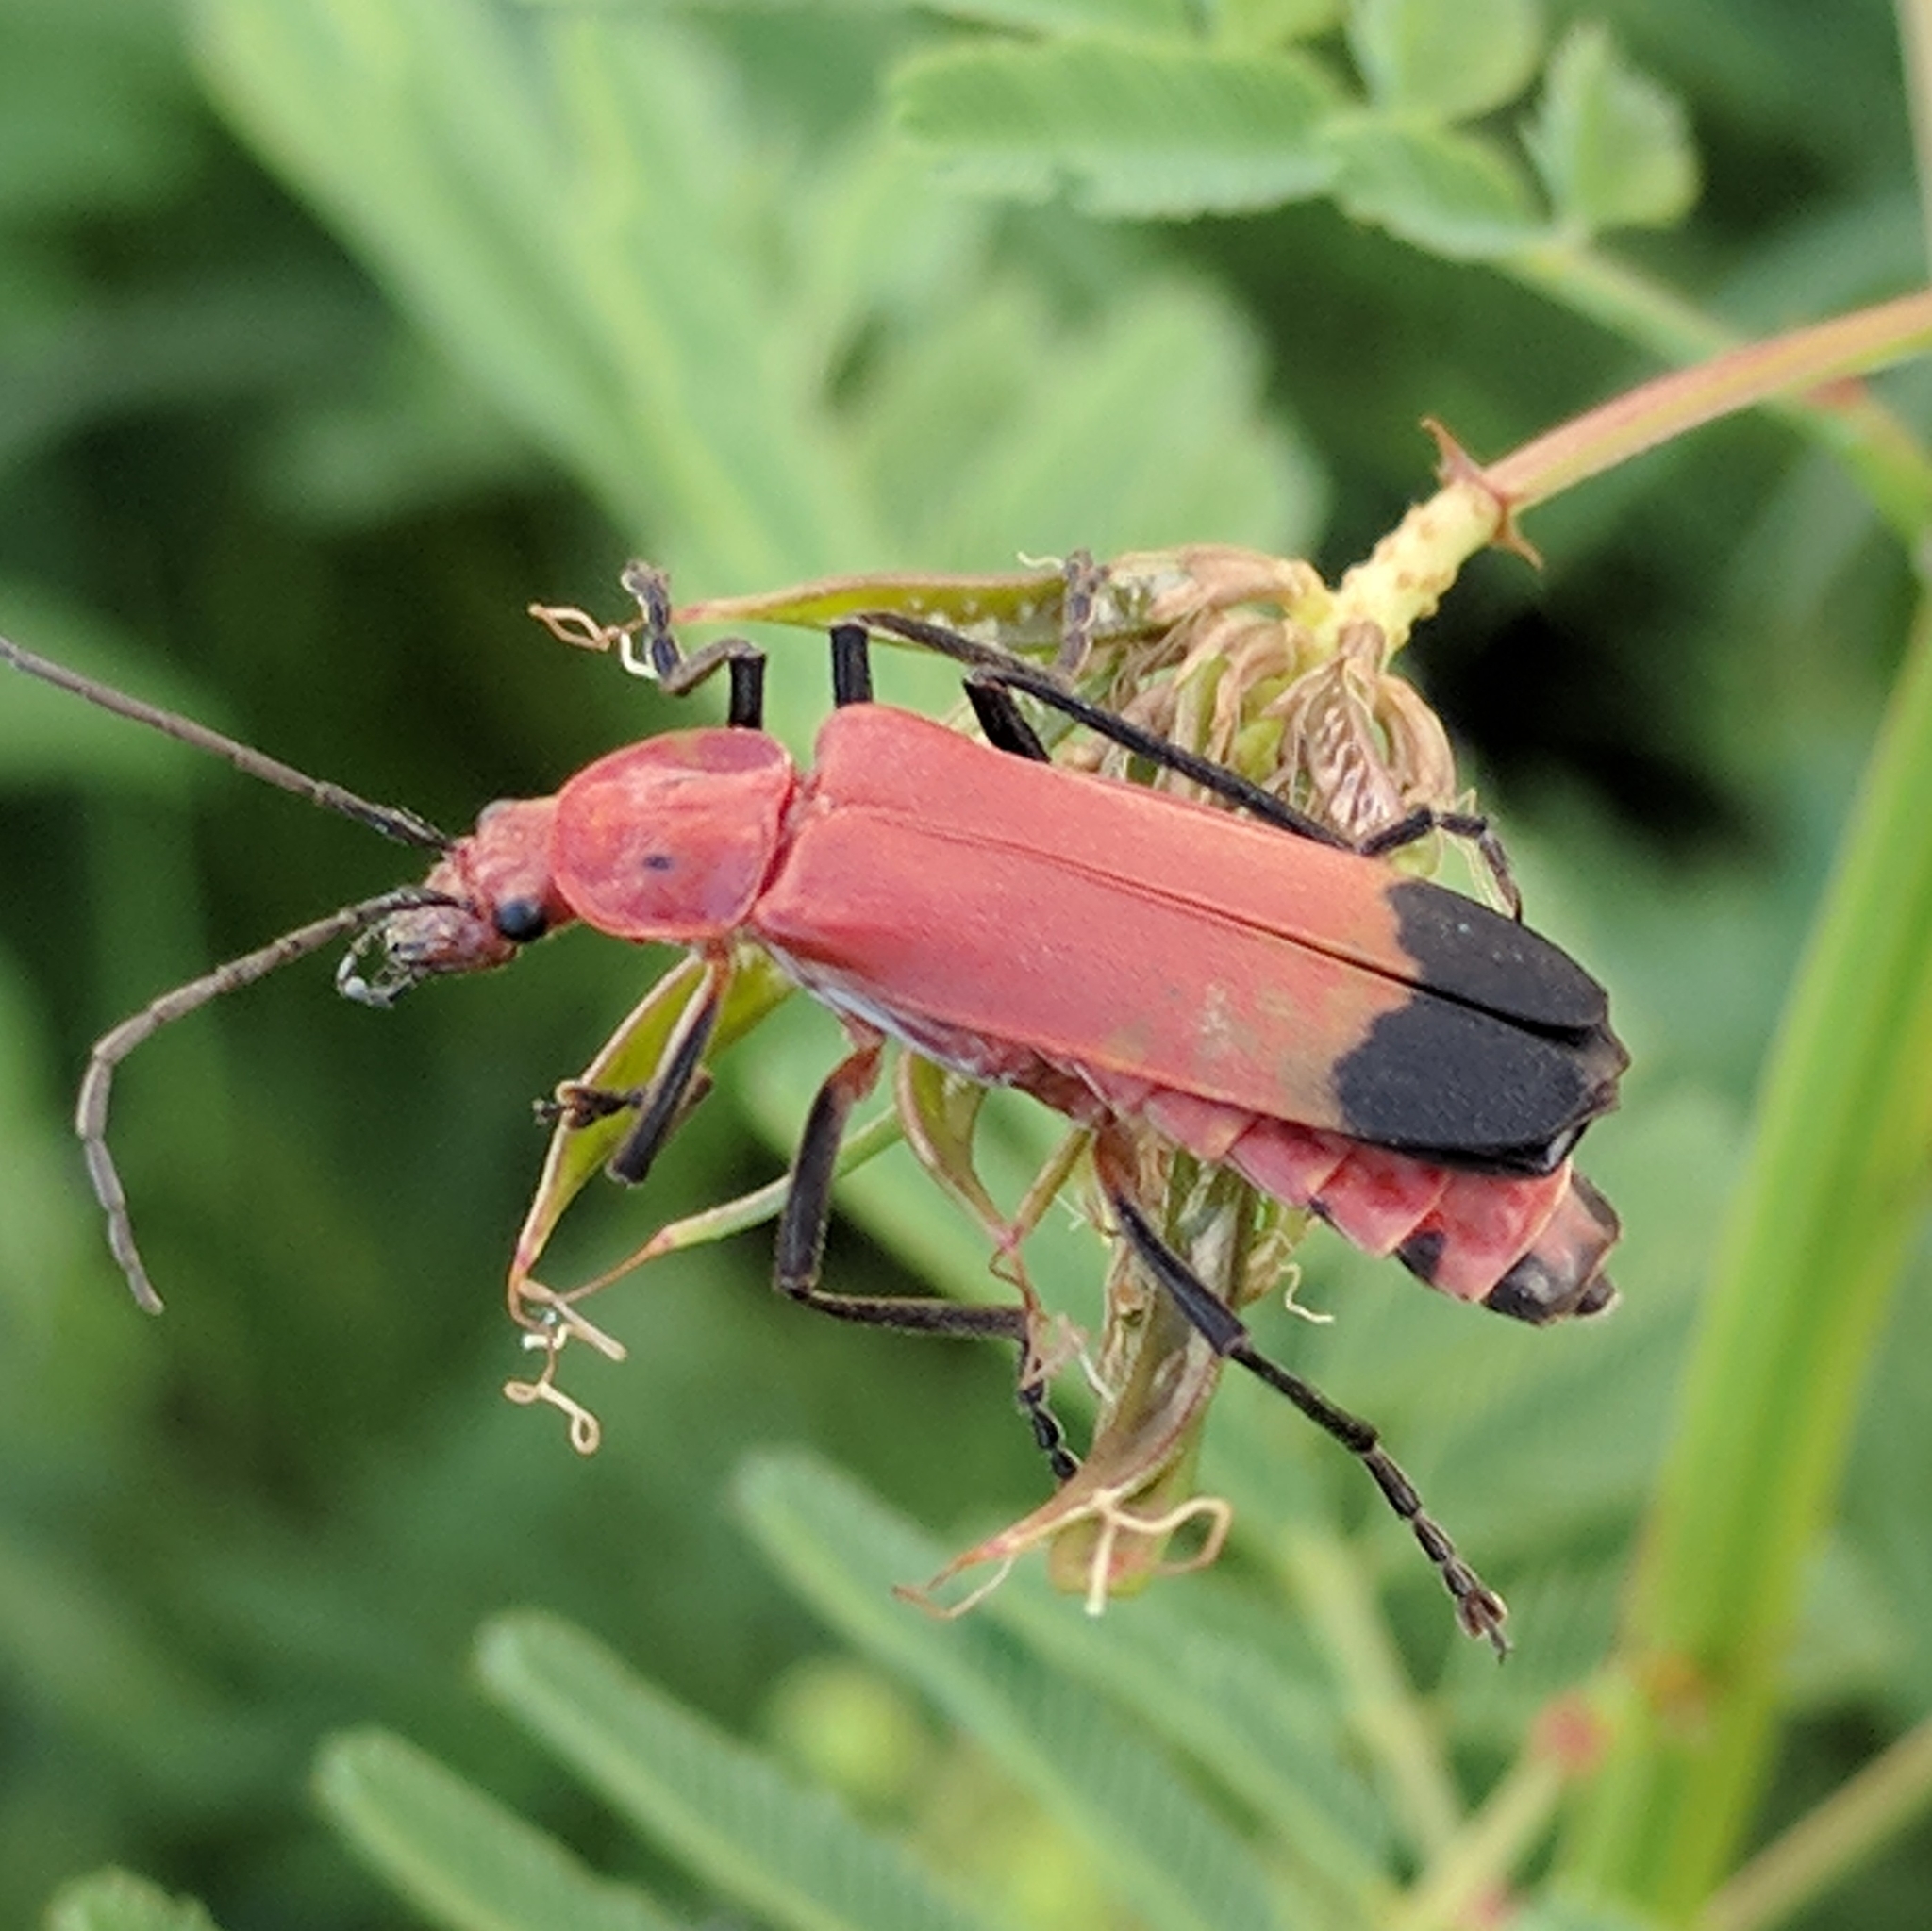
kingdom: Animalia
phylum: Arthropoda
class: Insecta
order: Coleoptera
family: Cantharidae
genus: Chauliognathus
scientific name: Chauliognathus lecontei
